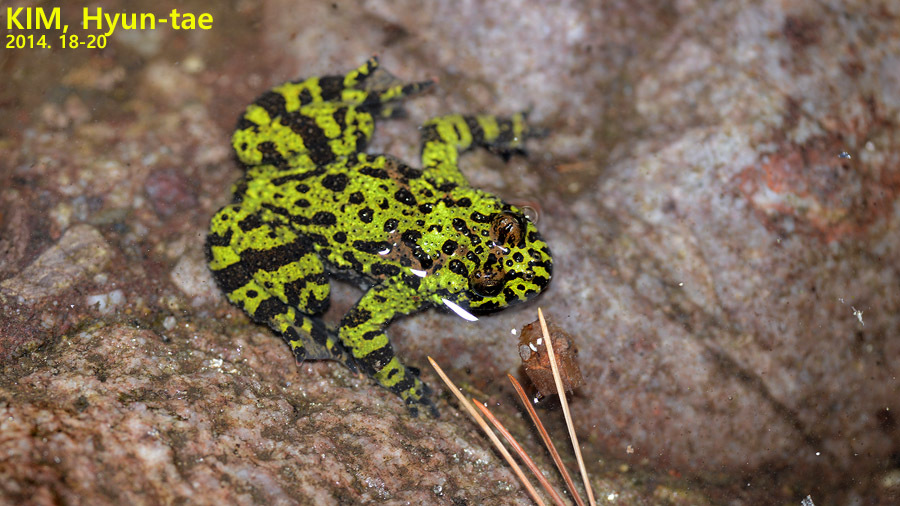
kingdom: Animalia
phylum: Chordata
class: Amphibia
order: Anura
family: Bombinatoridae
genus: Bombina
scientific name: Bombina orientalis
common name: Oriental firebelly toad
